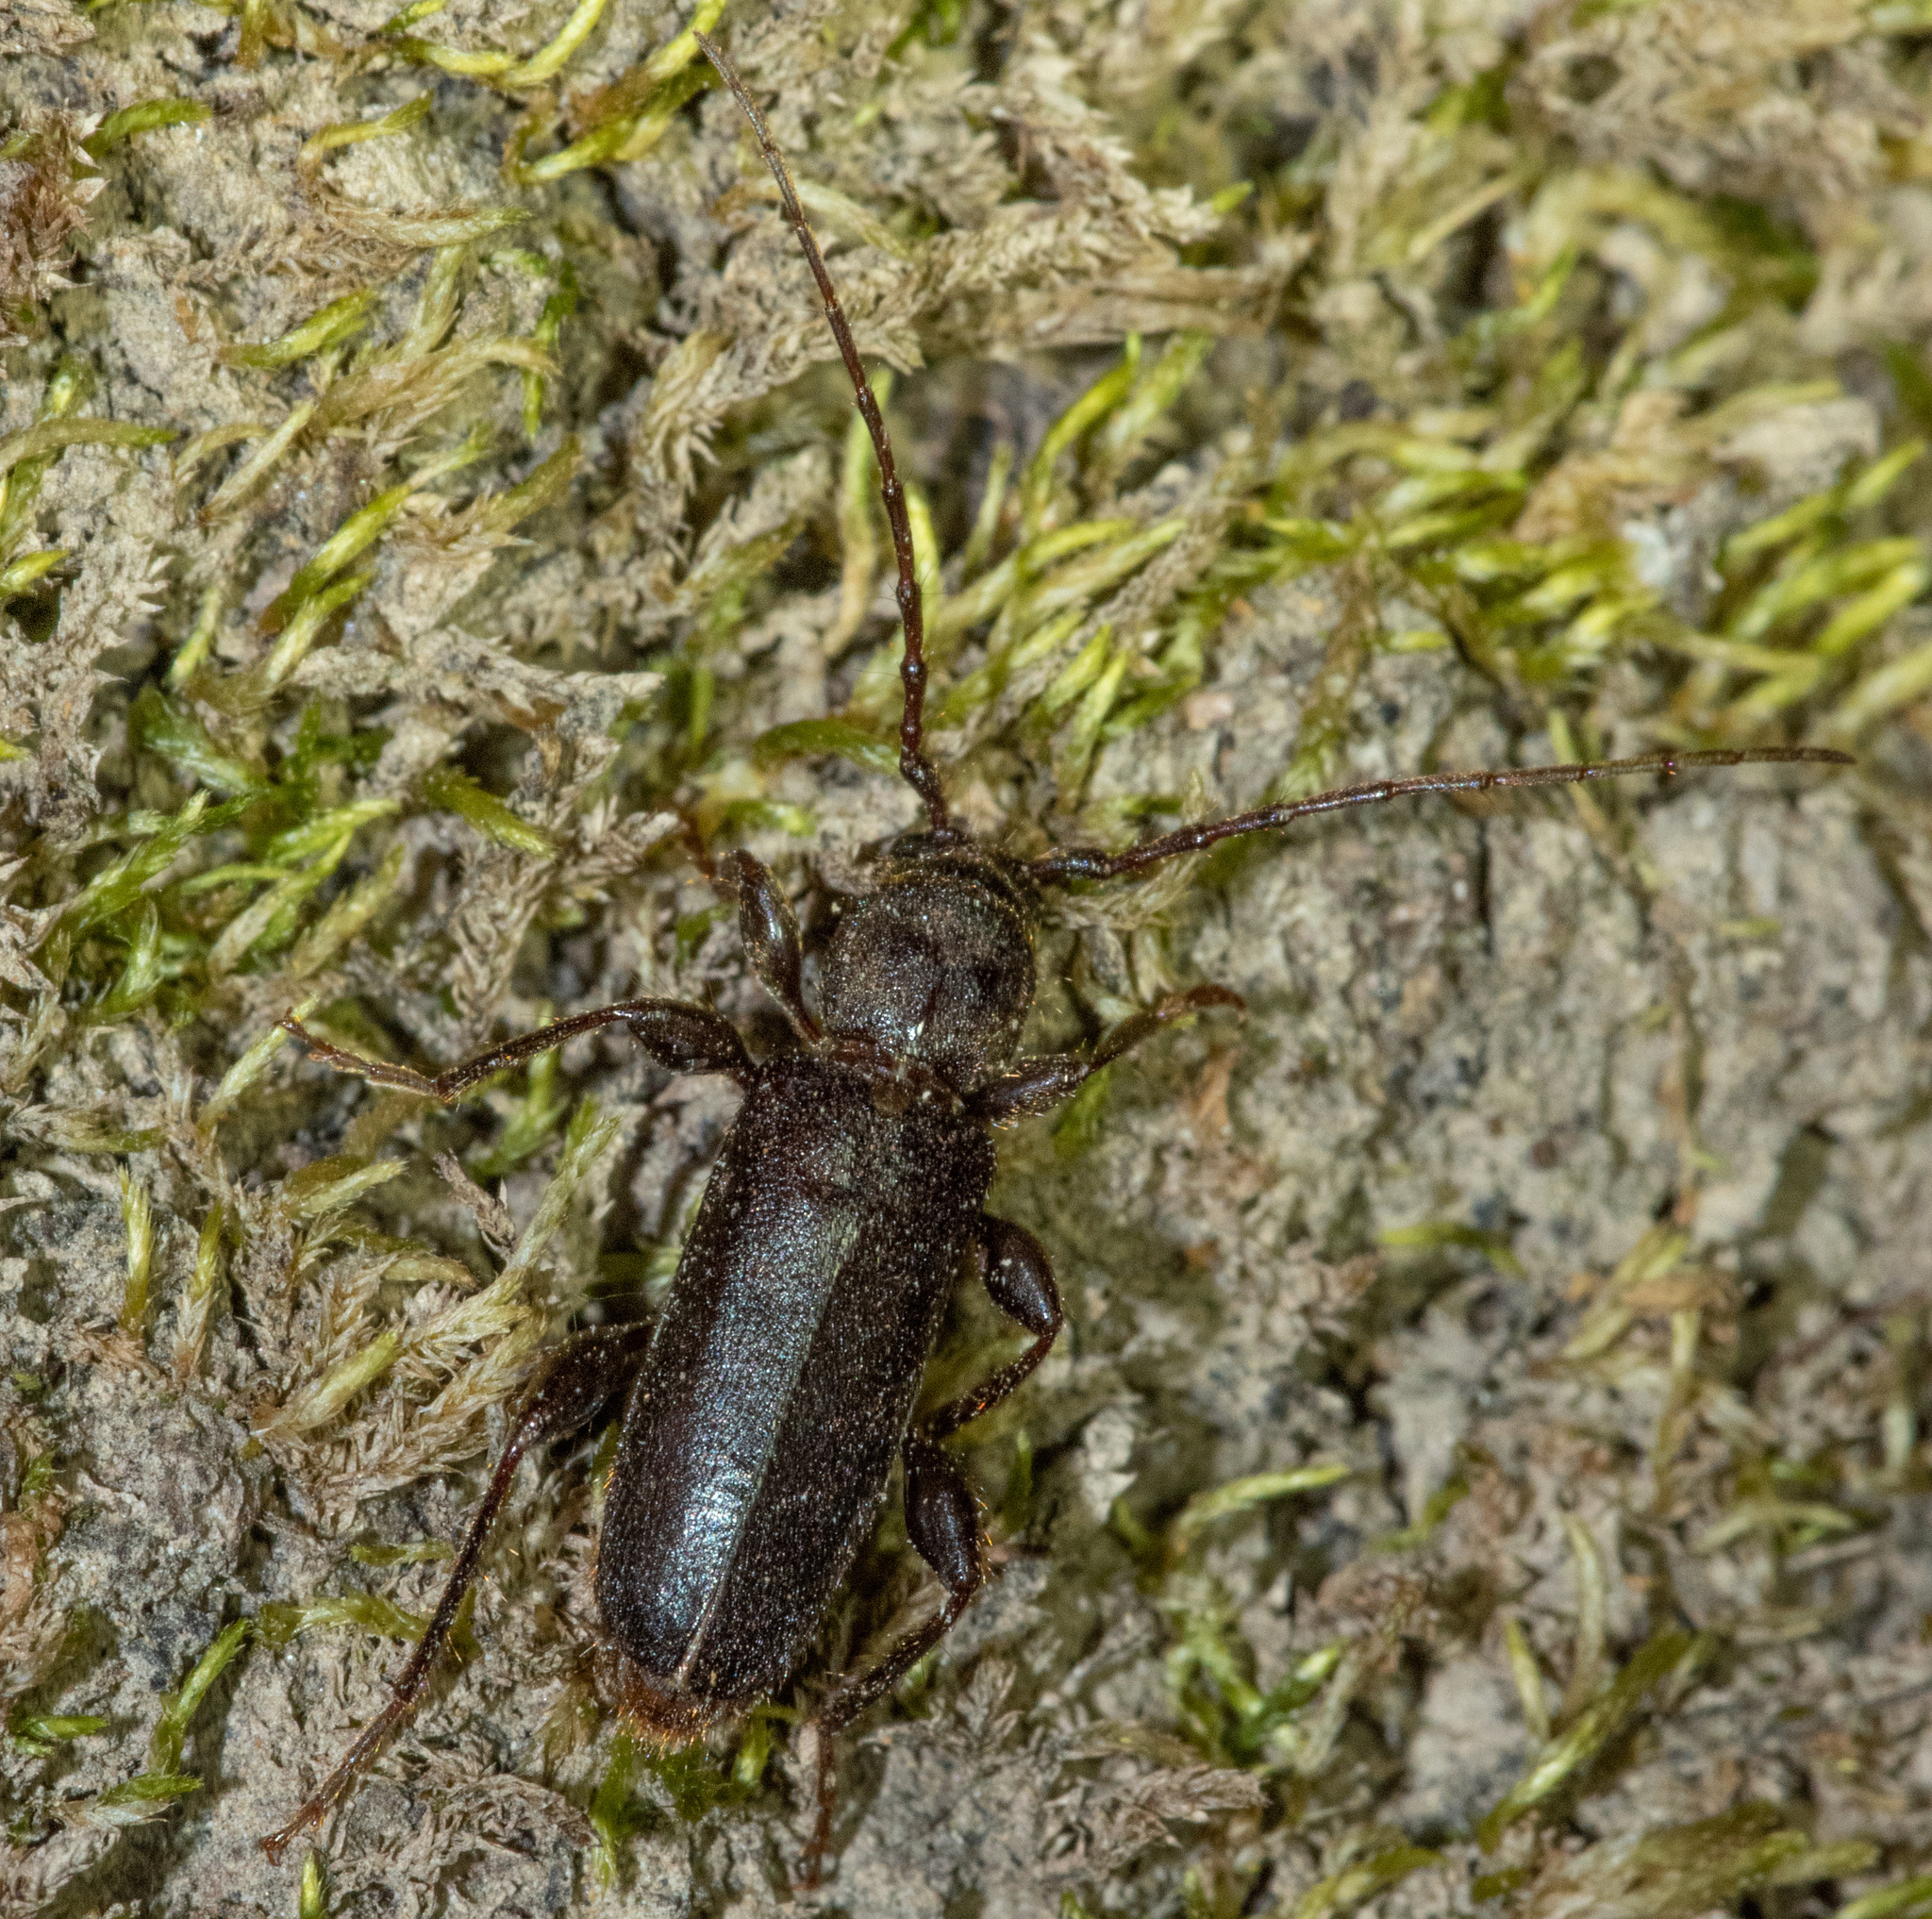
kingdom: Animalia
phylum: Arthropoda
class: Insecta
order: Coleoptera
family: Cerambycidae
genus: Phymatodes
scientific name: Phymatodes grandis
